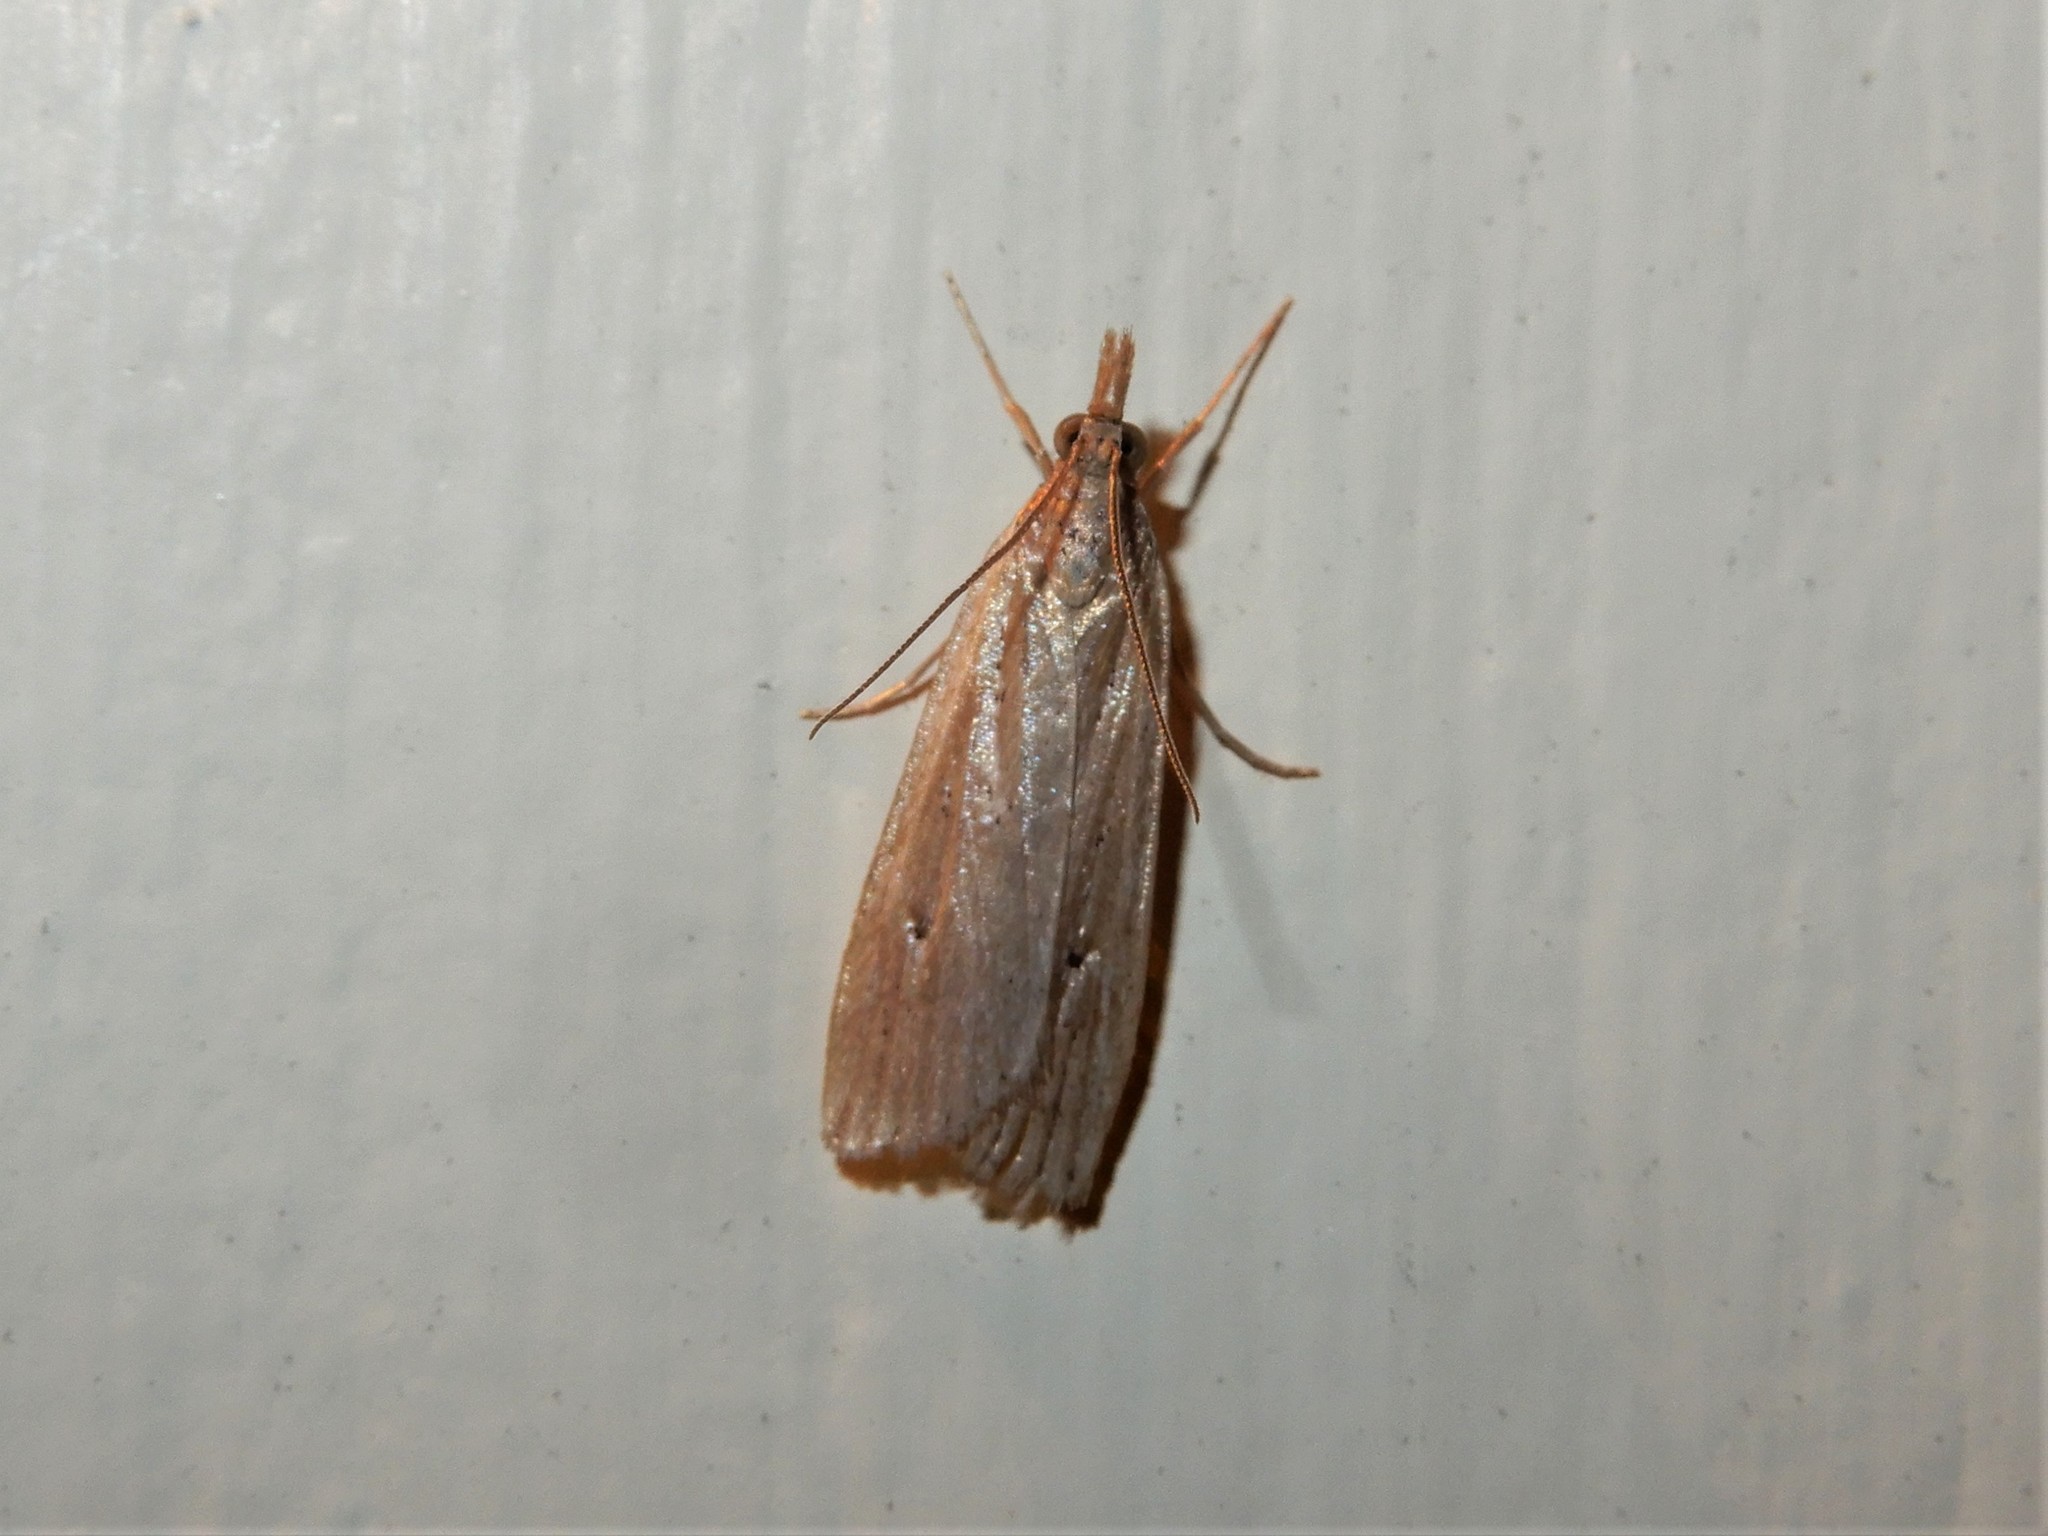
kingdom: Animalia
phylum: Arthropoda
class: Insecta
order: Lepidoptera
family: Crambidae
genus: Eudonia
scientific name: Eudonia sabulosella
